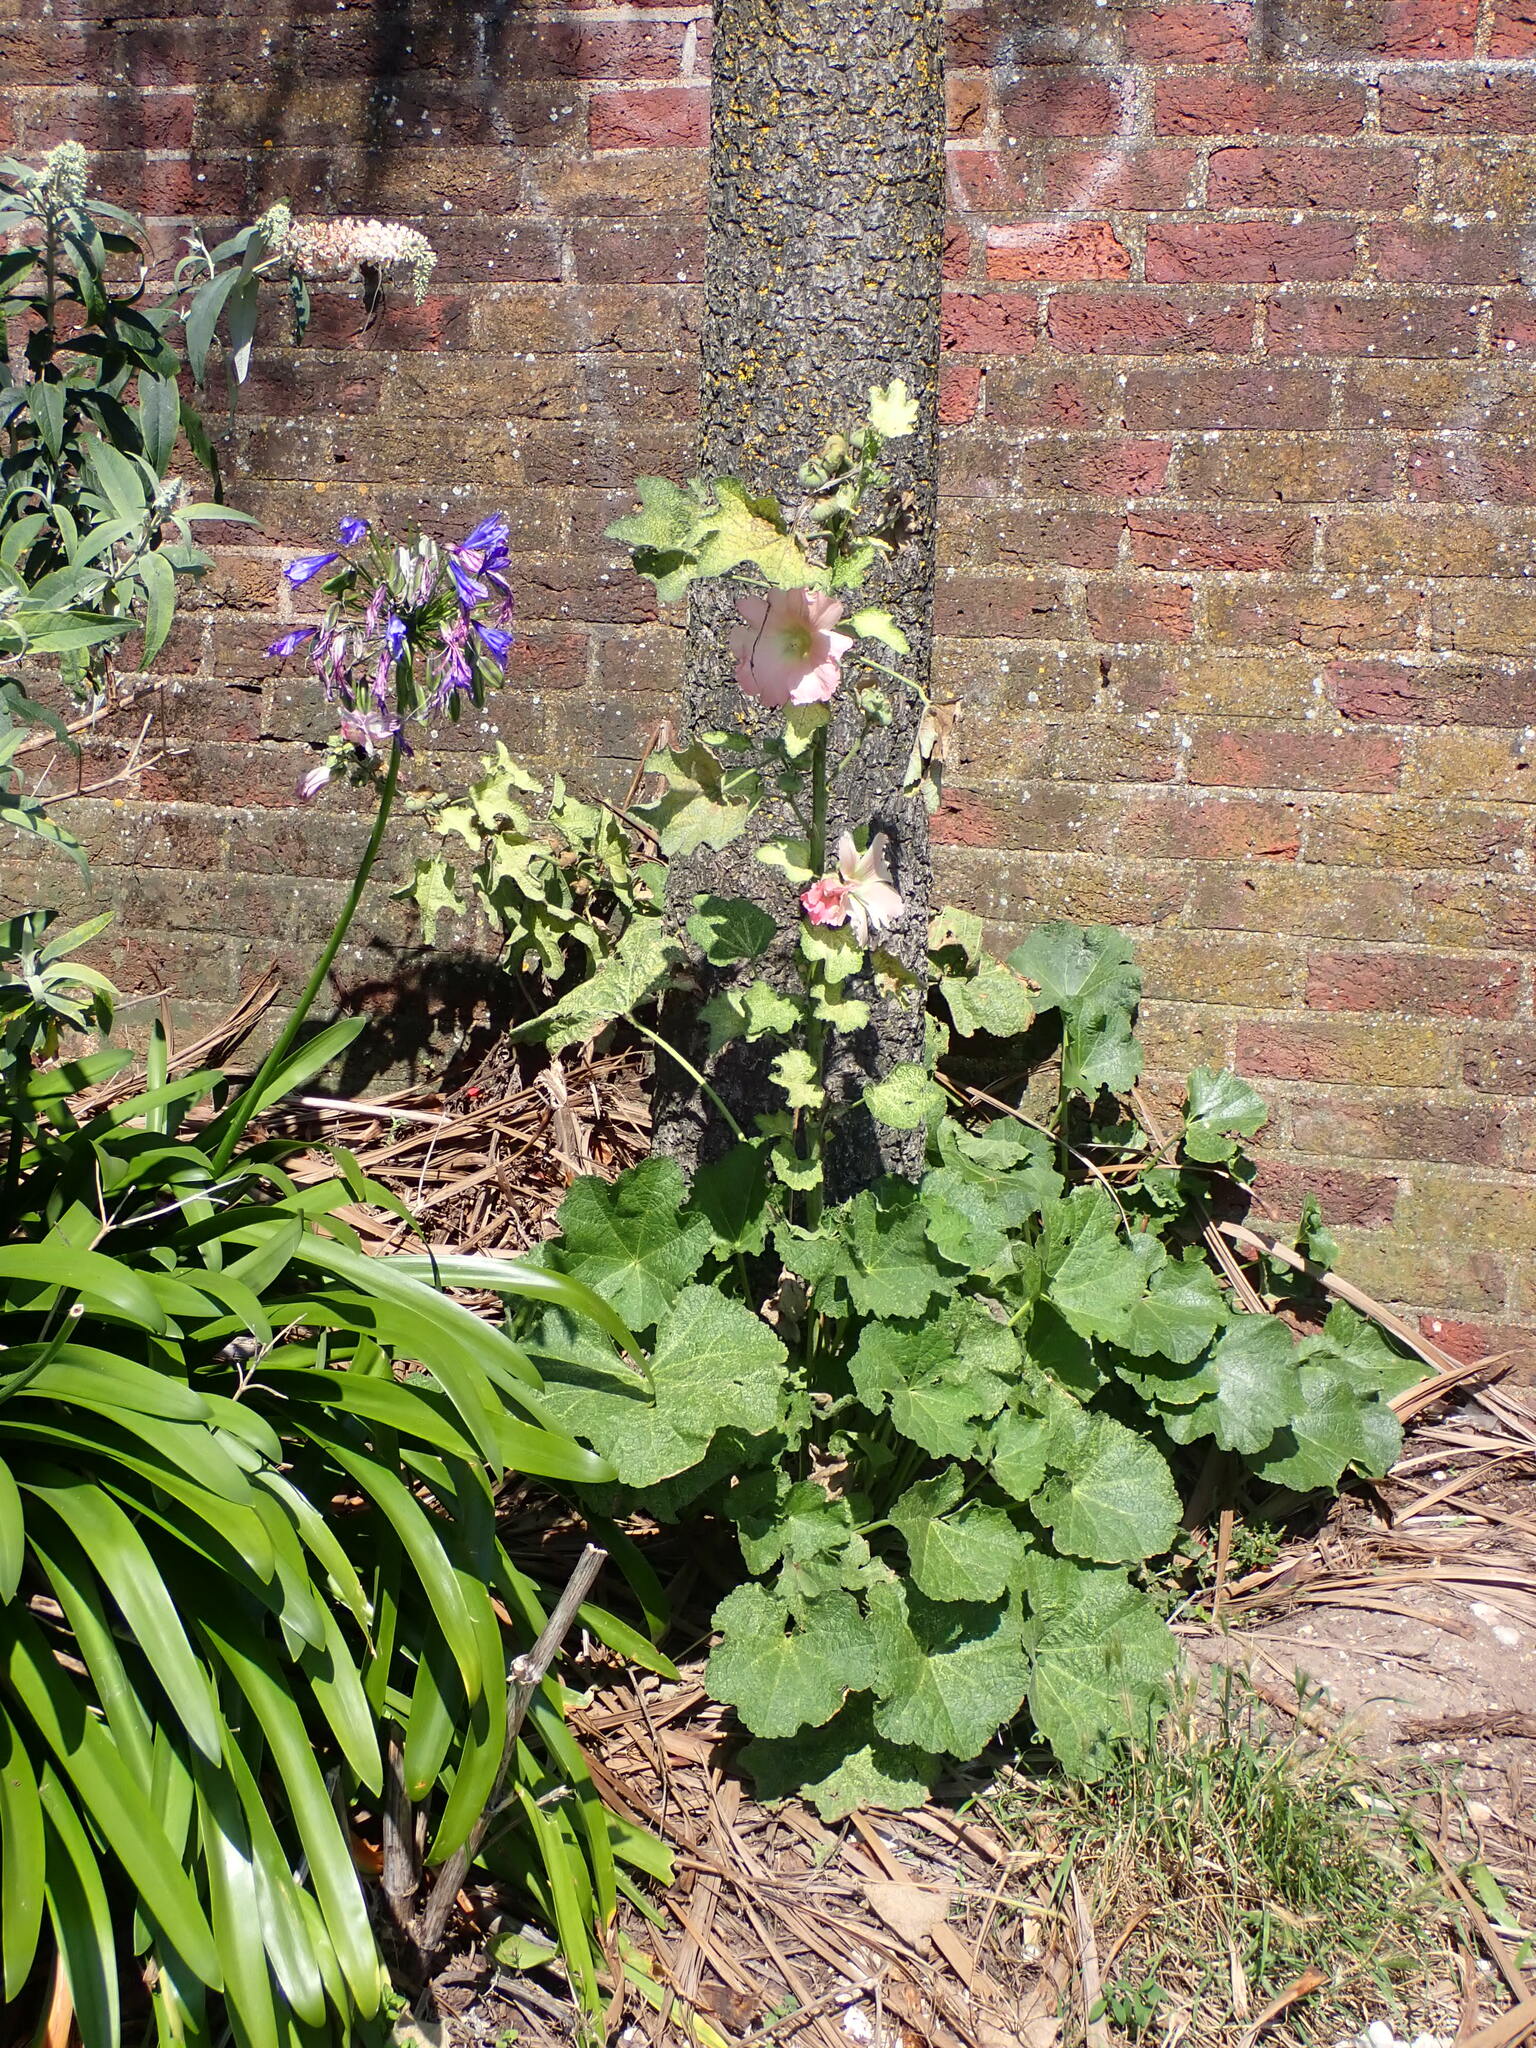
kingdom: Plantae
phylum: Tracheophyta
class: Magnoliopsida
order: Malvales
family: Malvaceae
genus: Alcea
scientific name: Alcea rosea
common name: Hollyhock
